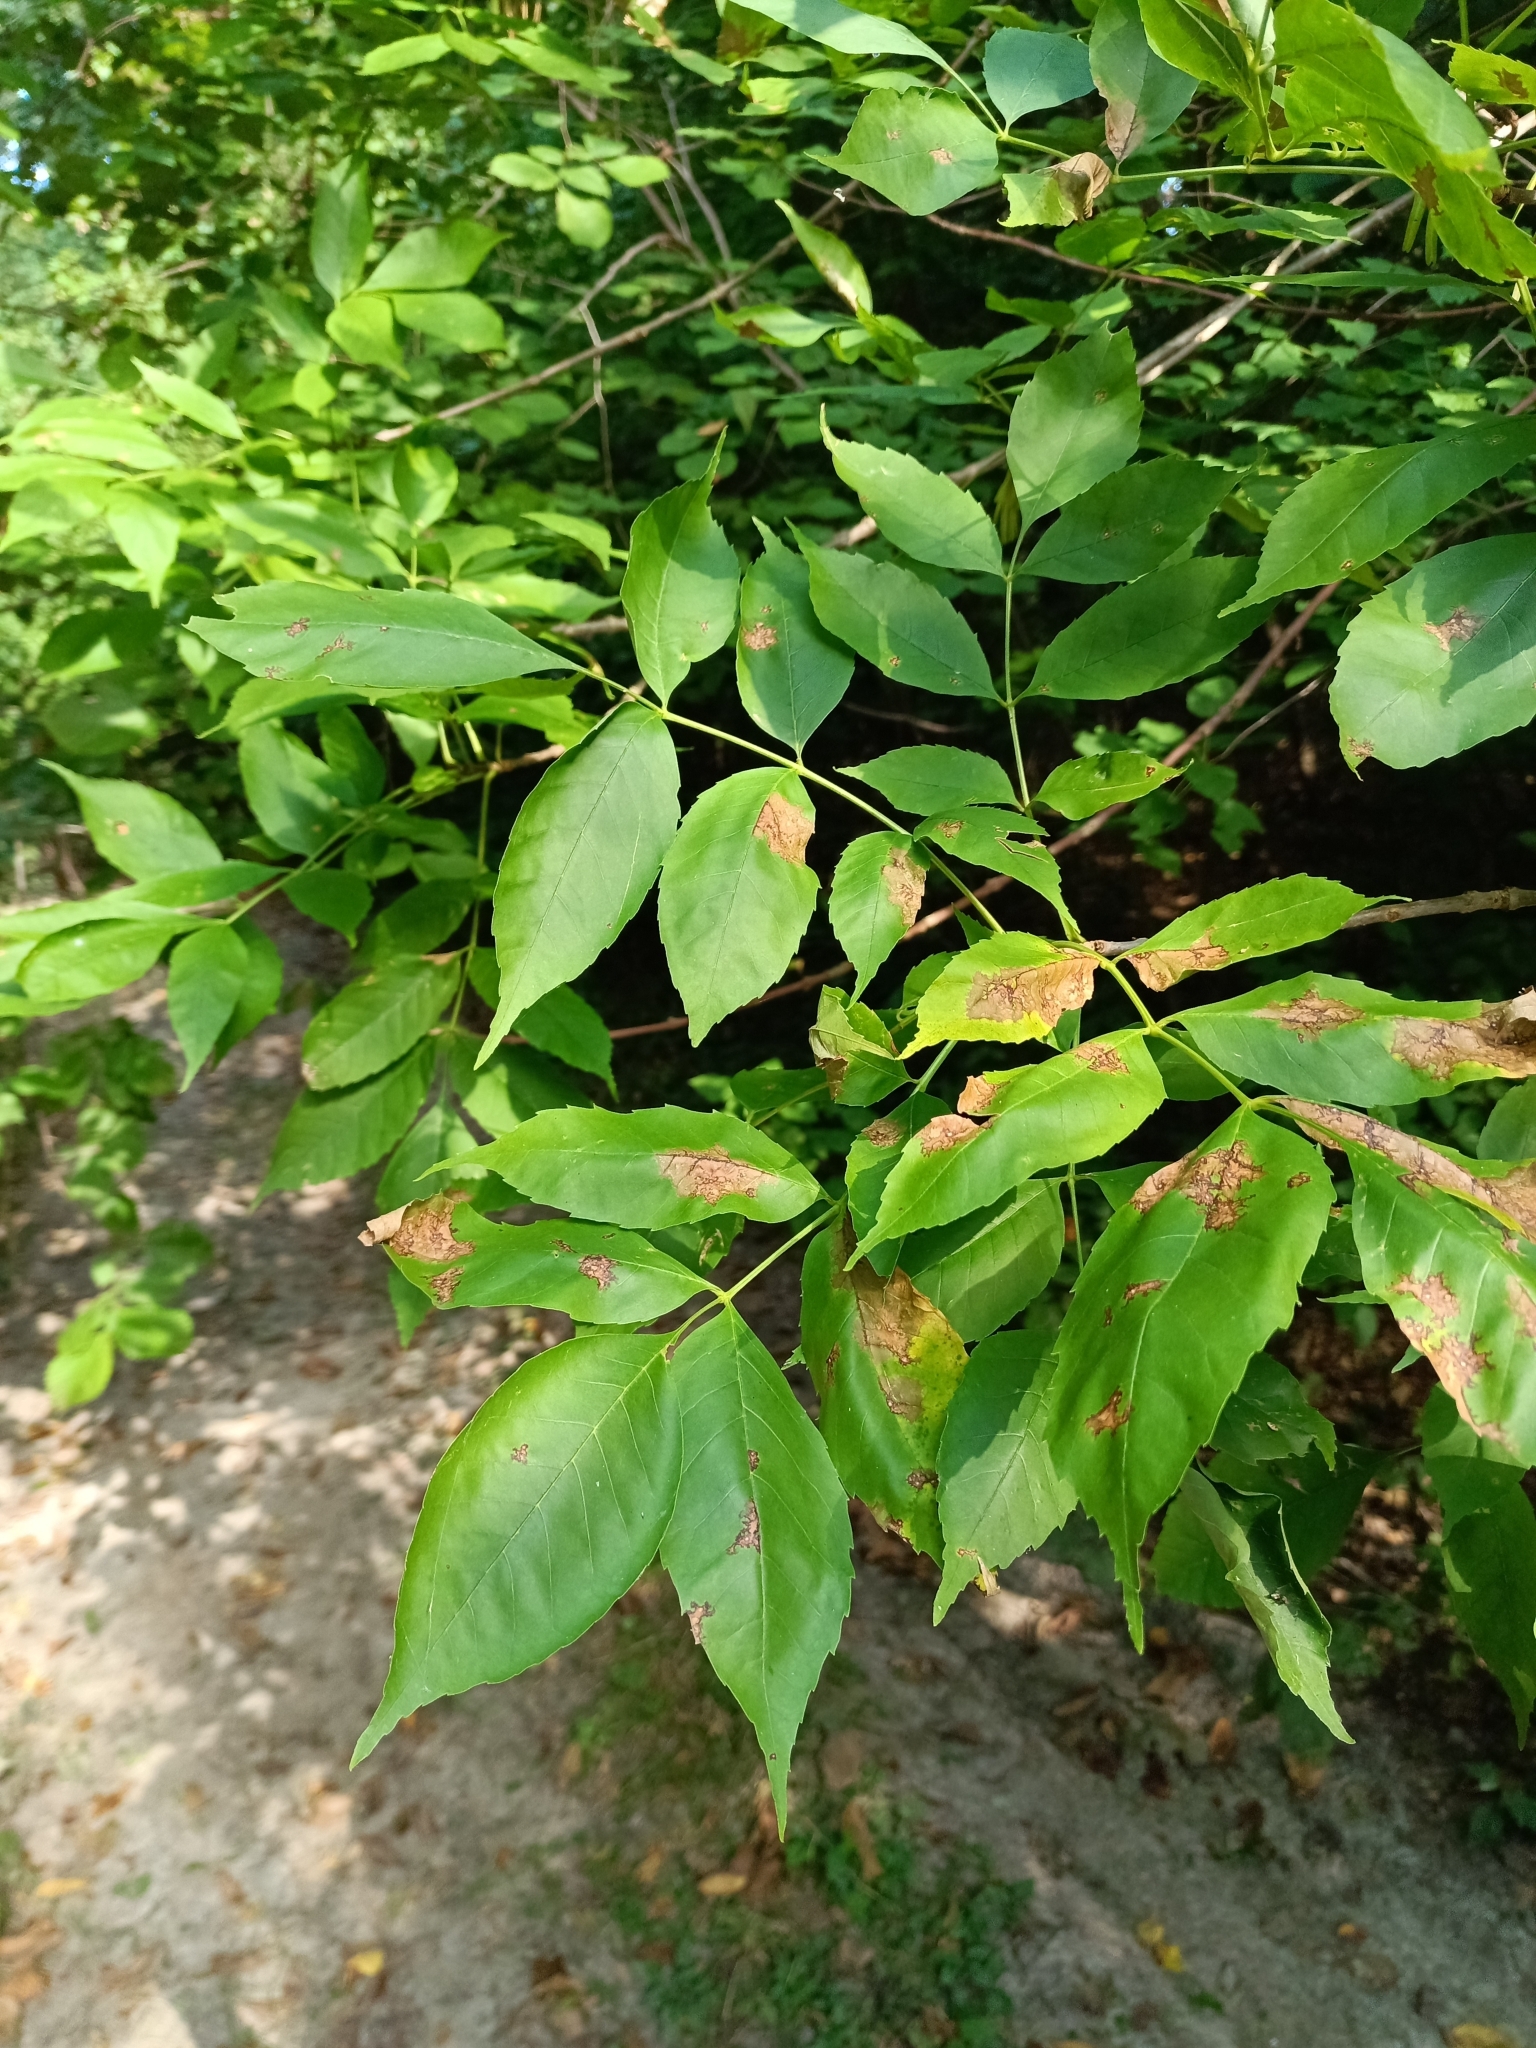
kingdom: Plantae
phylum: Tracheophyta
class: Magnoliopsida
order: Lamiales
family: Oleaceae
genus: Fraxinus
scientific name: Fraxinus pennsylvanica
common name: Green ash
